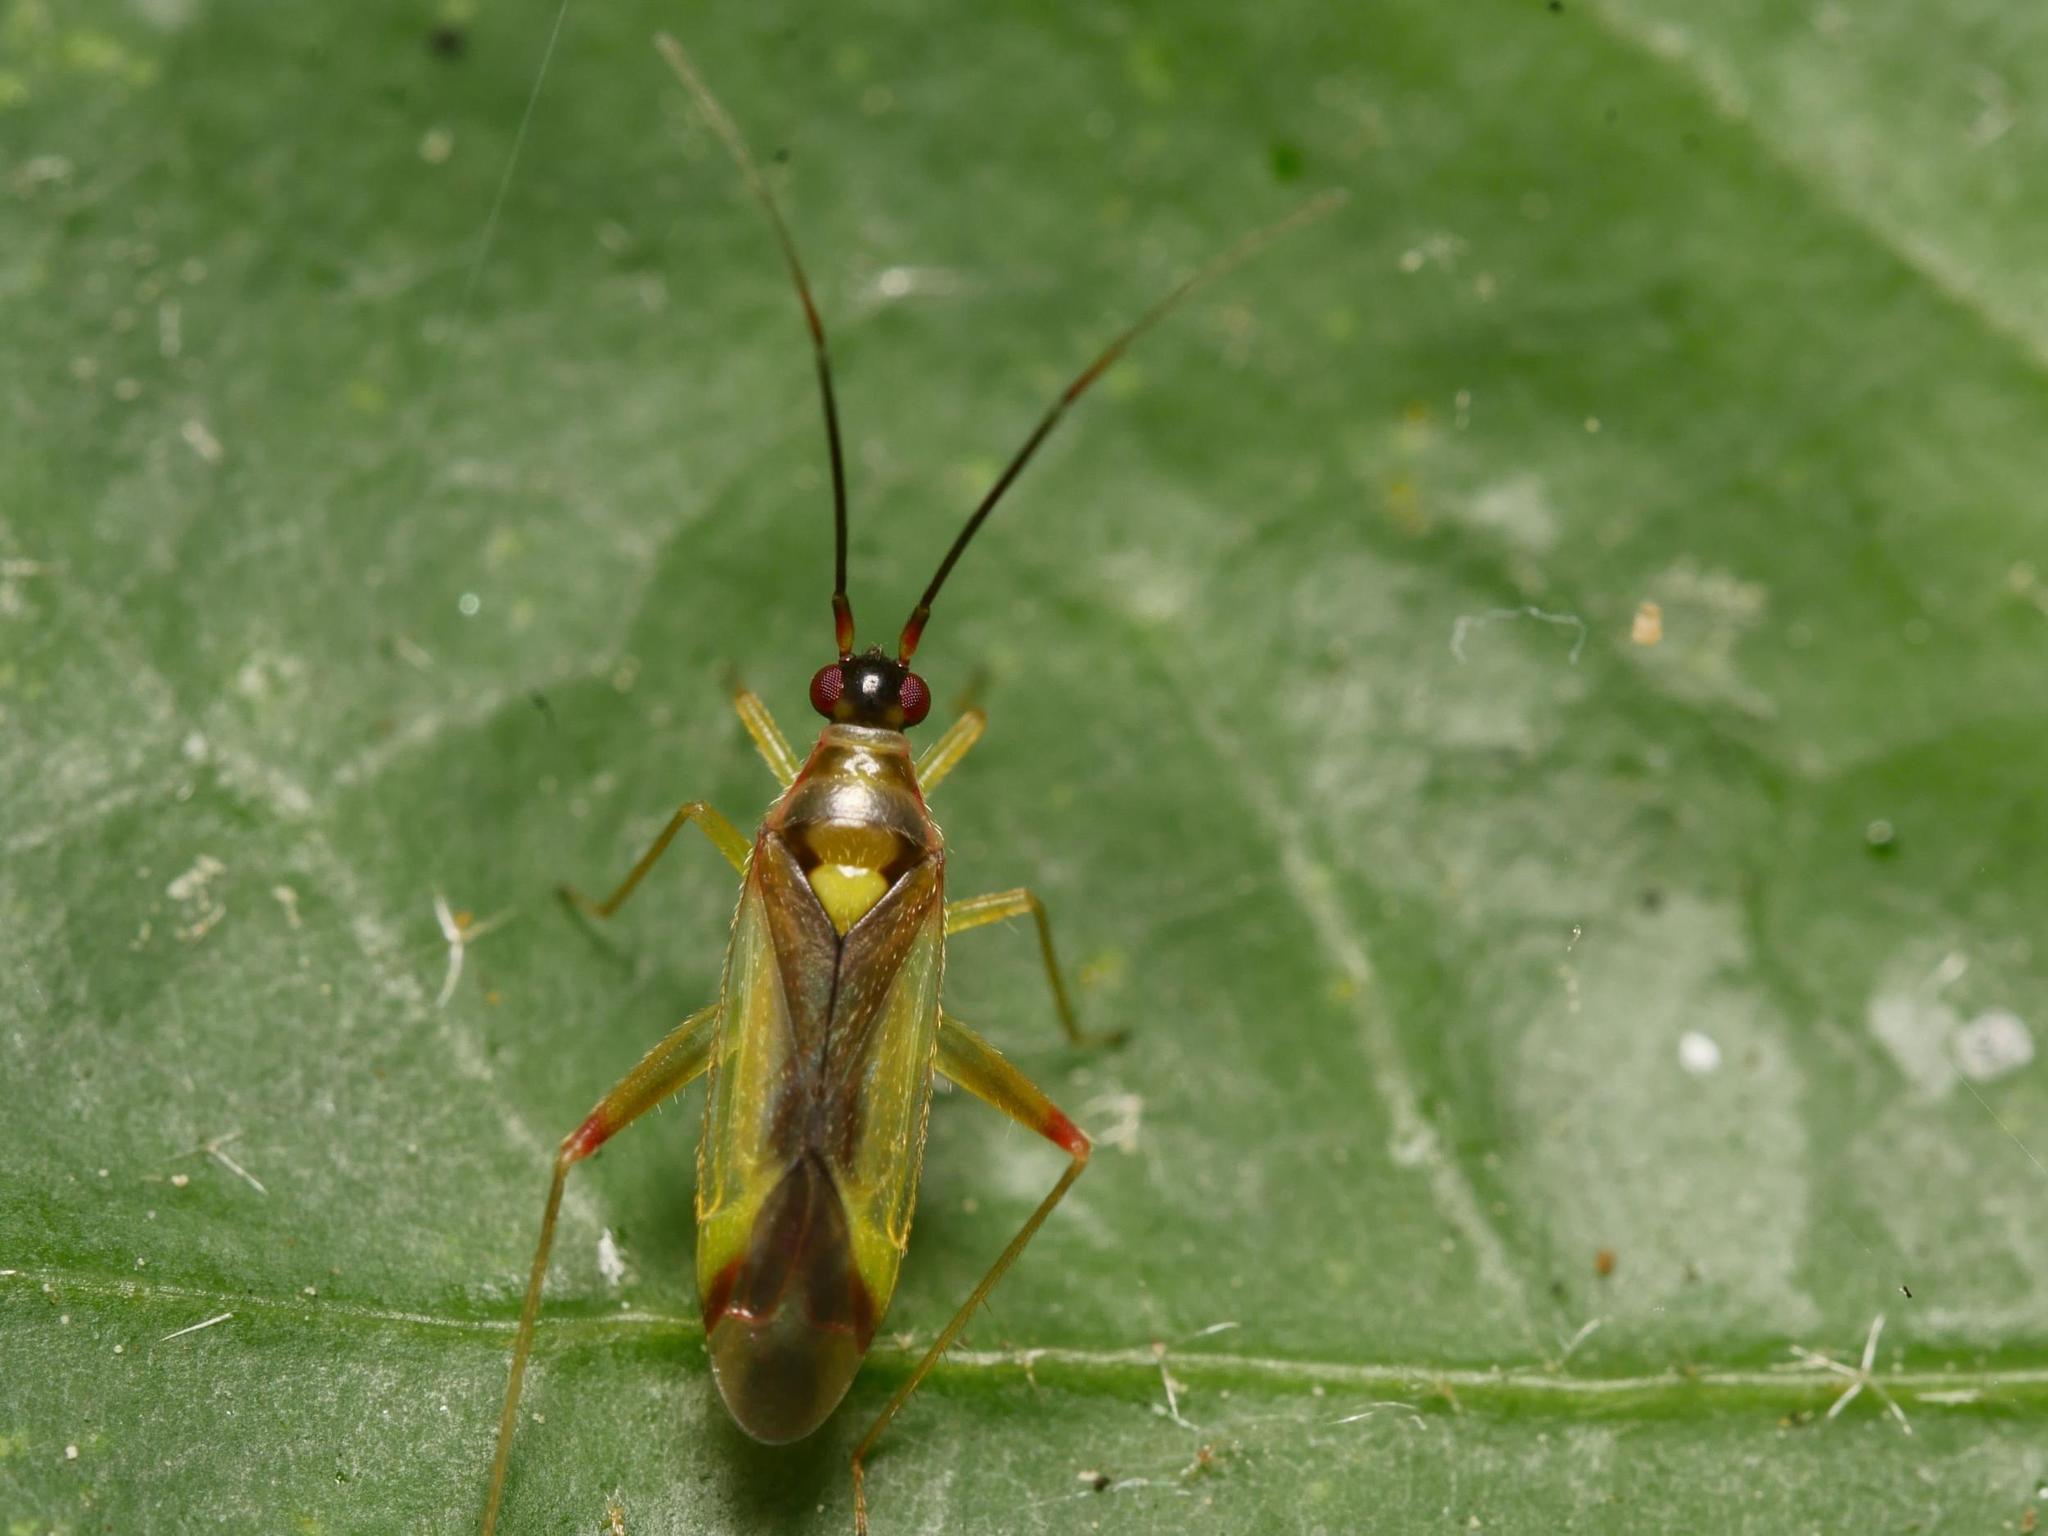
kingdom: Animalia
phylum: Arthropoda
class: Insecta
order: Hemiptera
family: Miridae
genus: Campyloneura
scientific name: Campyloneura virgula
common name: Predatory bug
